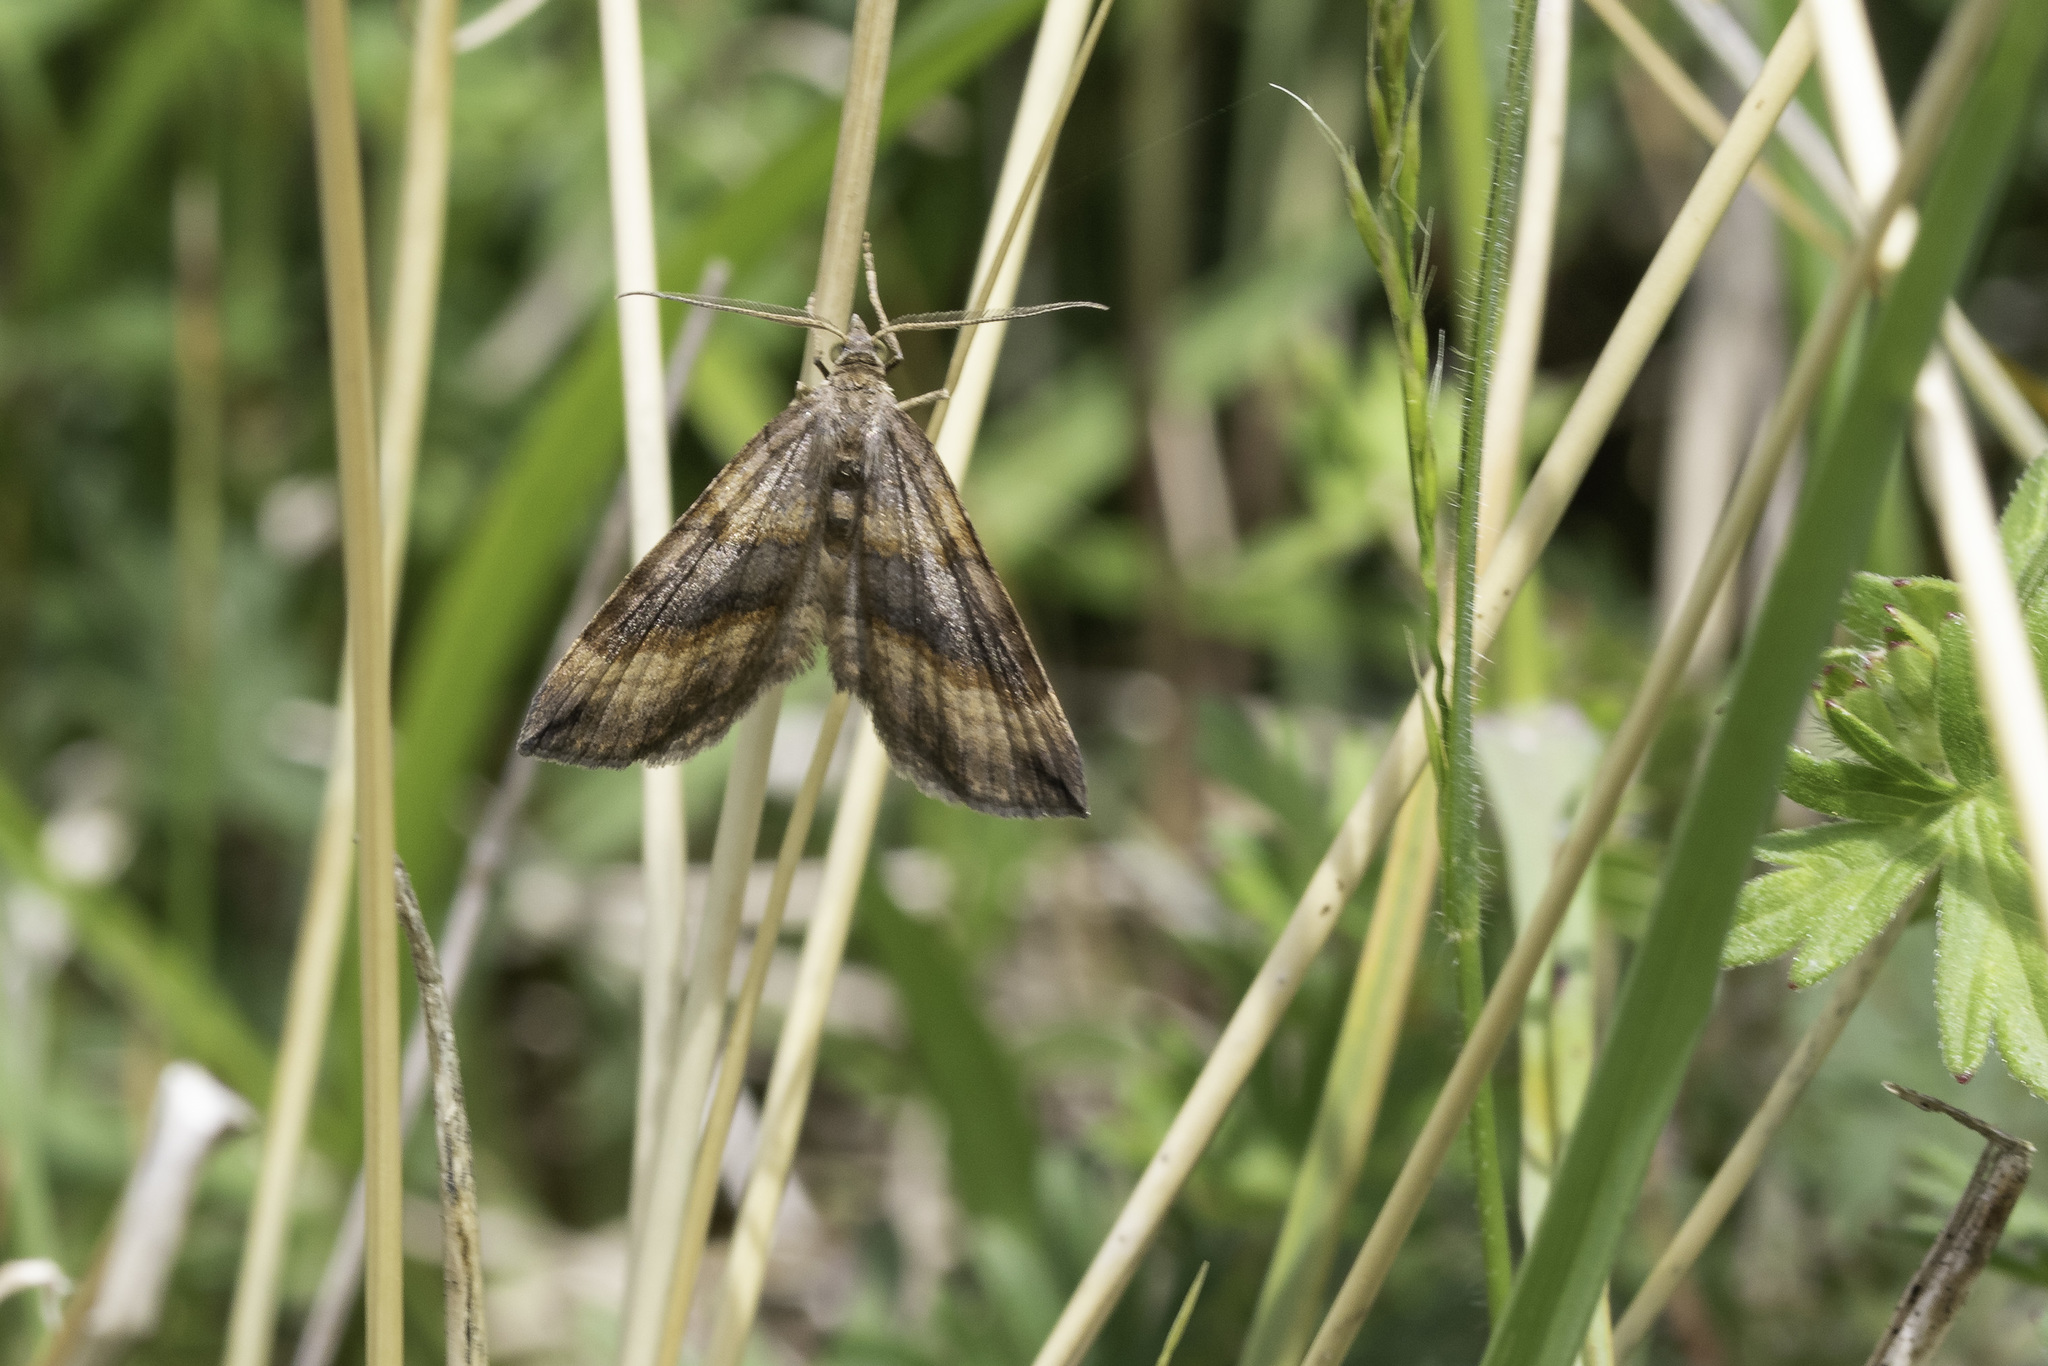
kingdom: Animalia
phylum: Arthropoda
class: Insecta
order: Lepidoptera
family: Geometridae
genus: Scotopteryx
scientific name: Scotopteryx chenopodiata
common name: Shaded broad-bar
